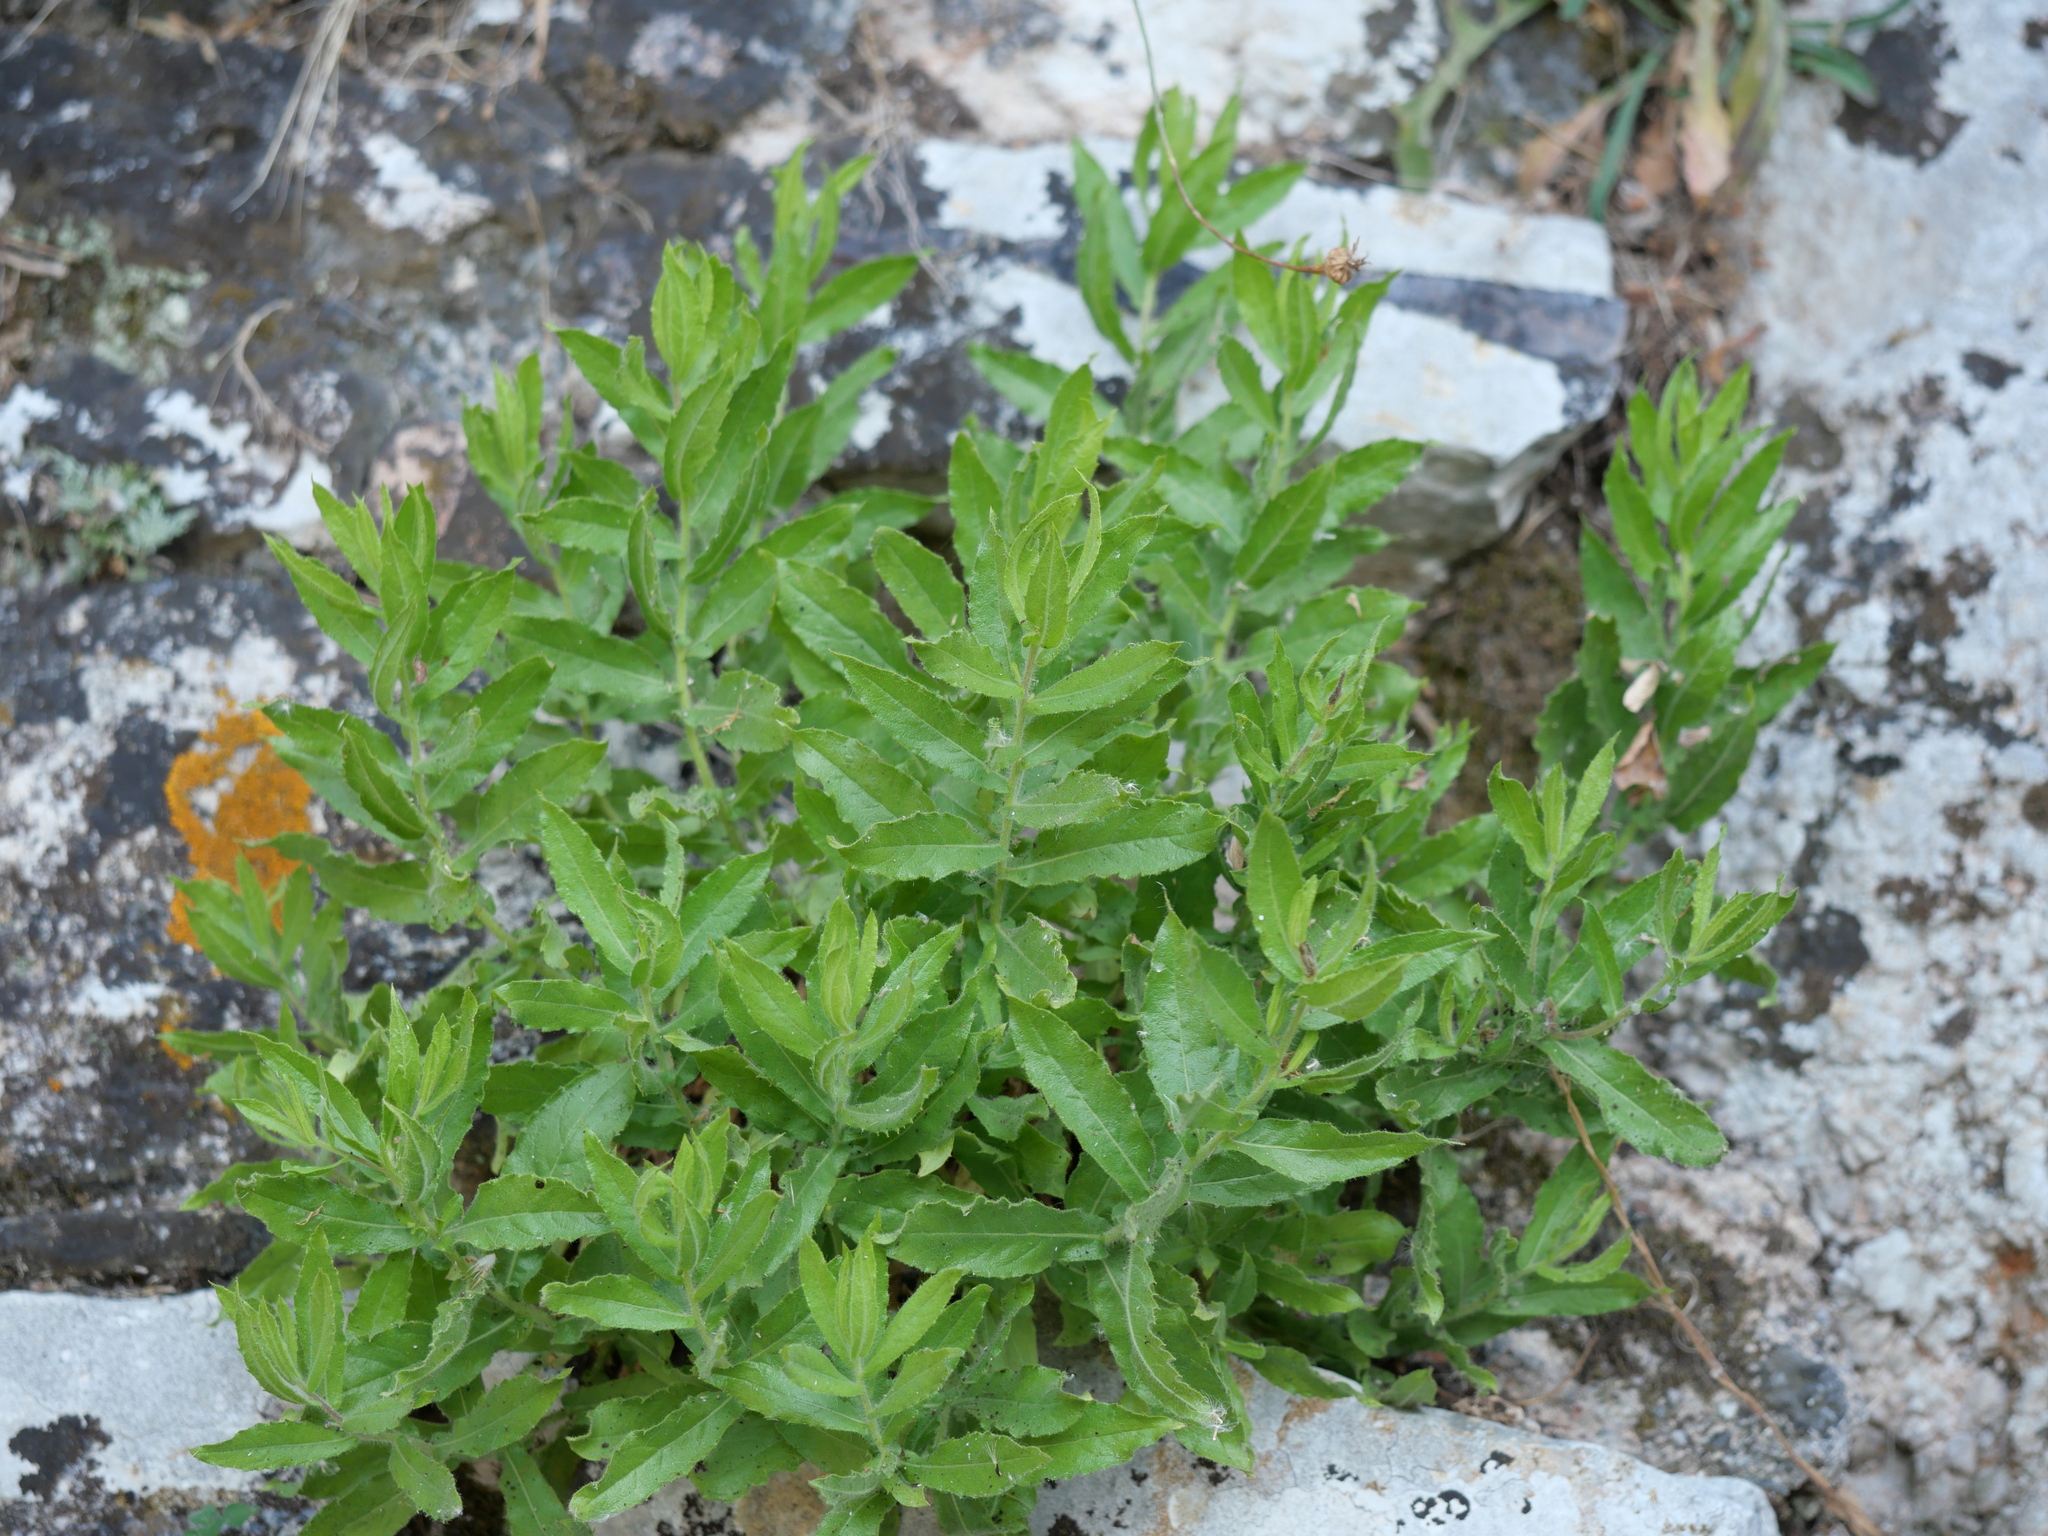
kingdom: Plantae
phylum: Tracheophyta
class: Magnoliopsida
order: Asterales
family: Asteraceae
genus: Dittrichia
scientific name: Dittrichia viscosa
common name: Woody fleabane
